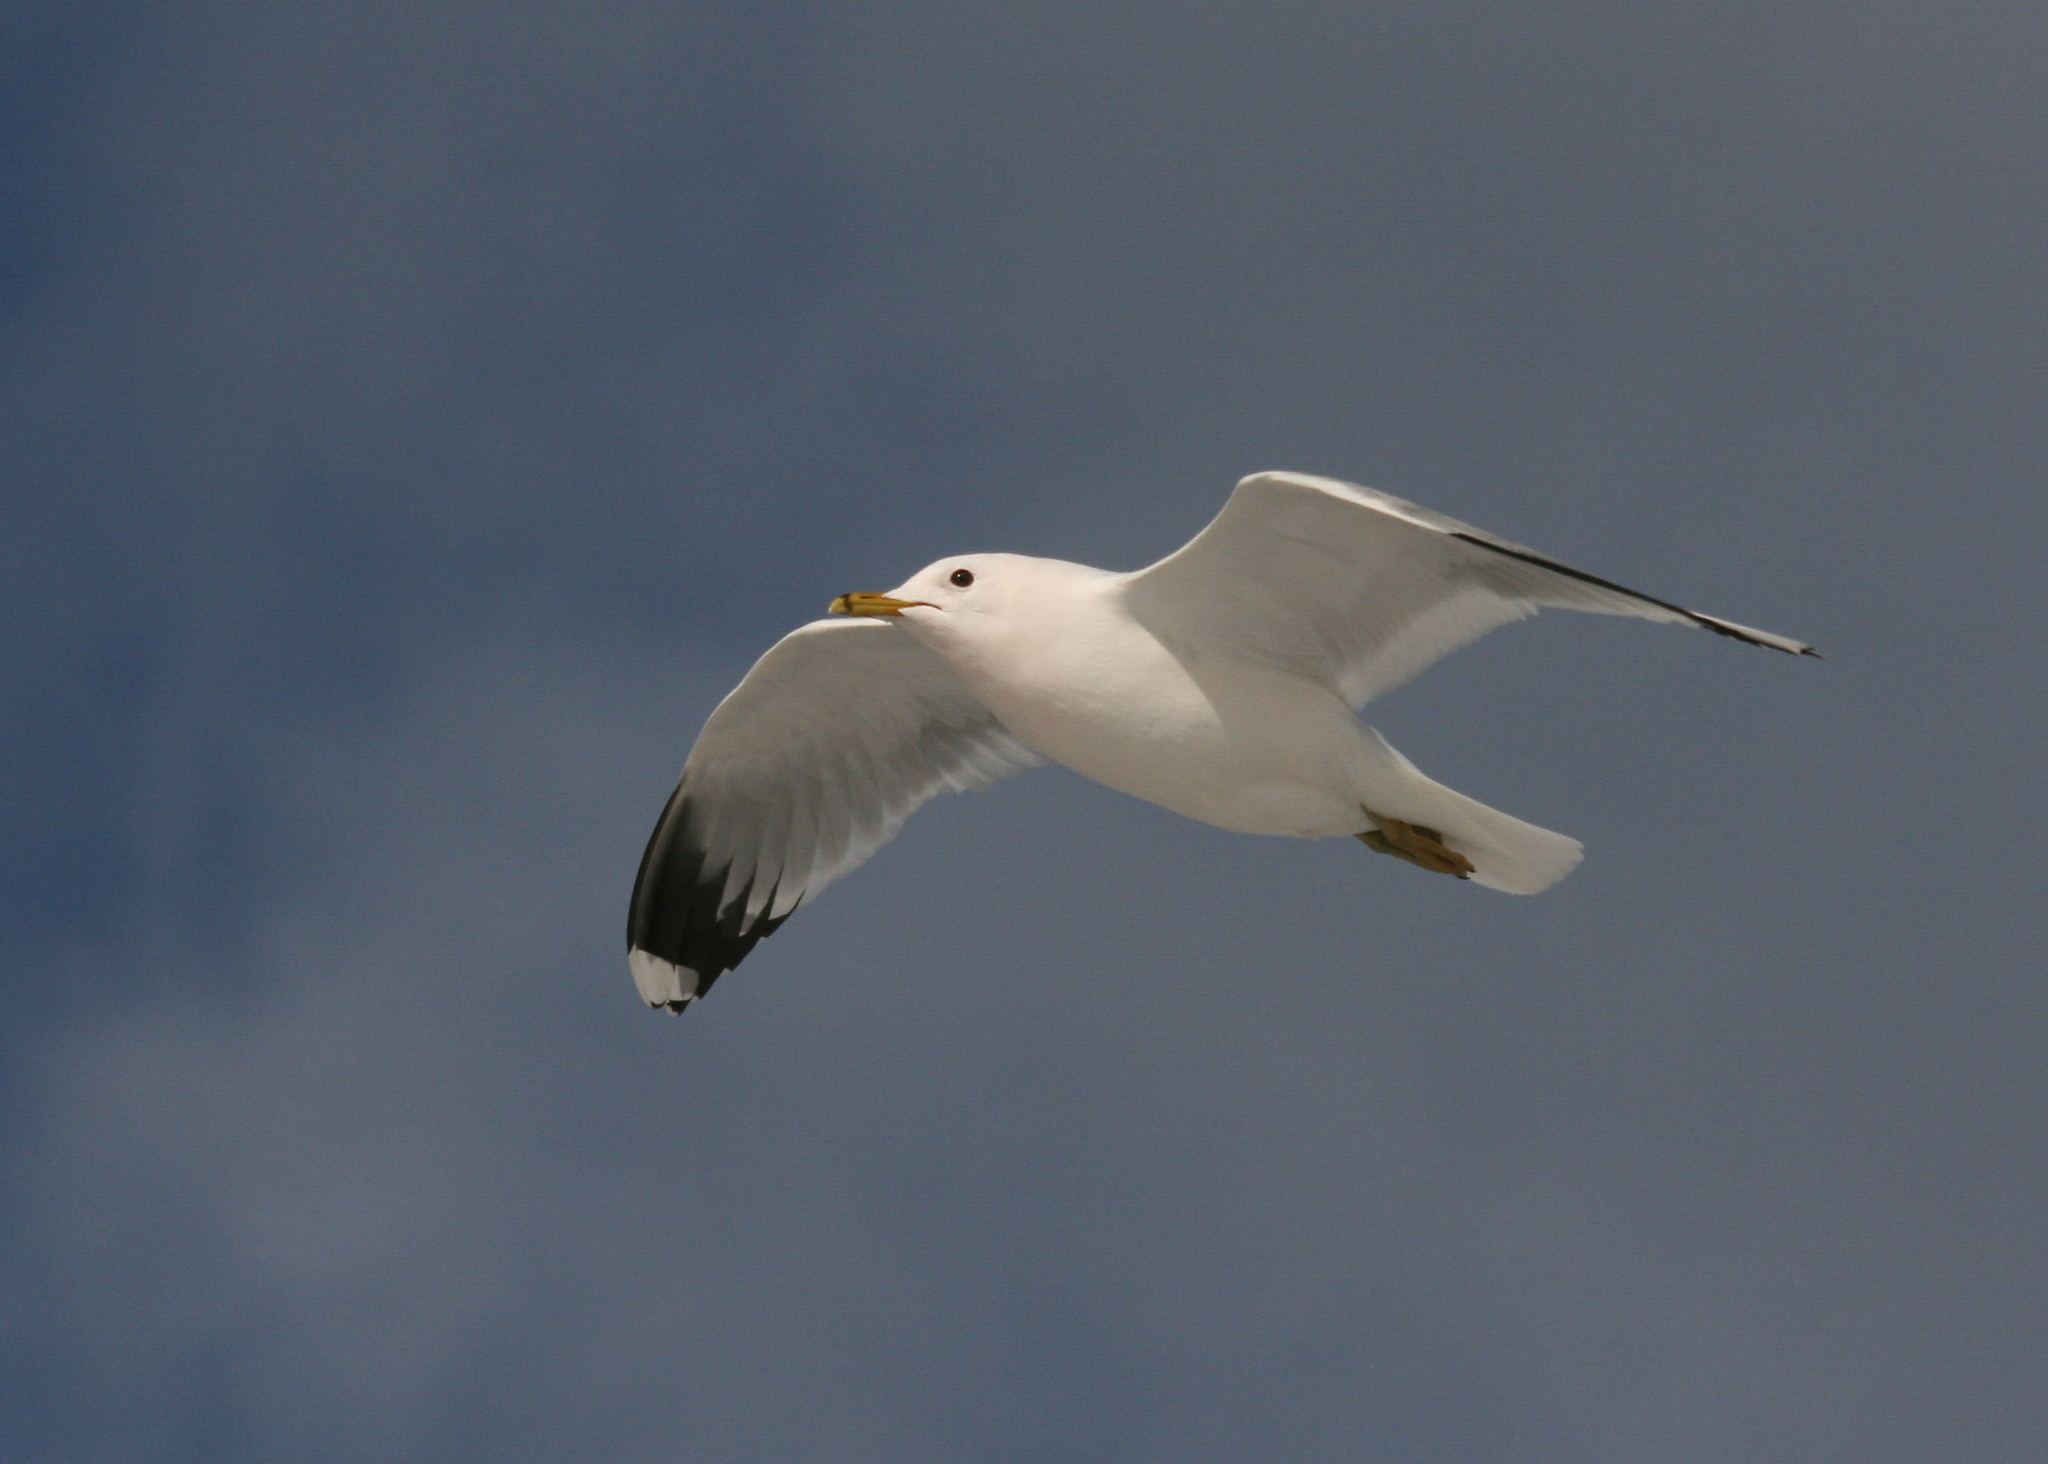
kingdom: Animalia
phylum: Chordata
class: Aves
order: Charadriiformes
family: Laridae
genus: Larus
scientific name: Larus canus
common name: Mew gull
